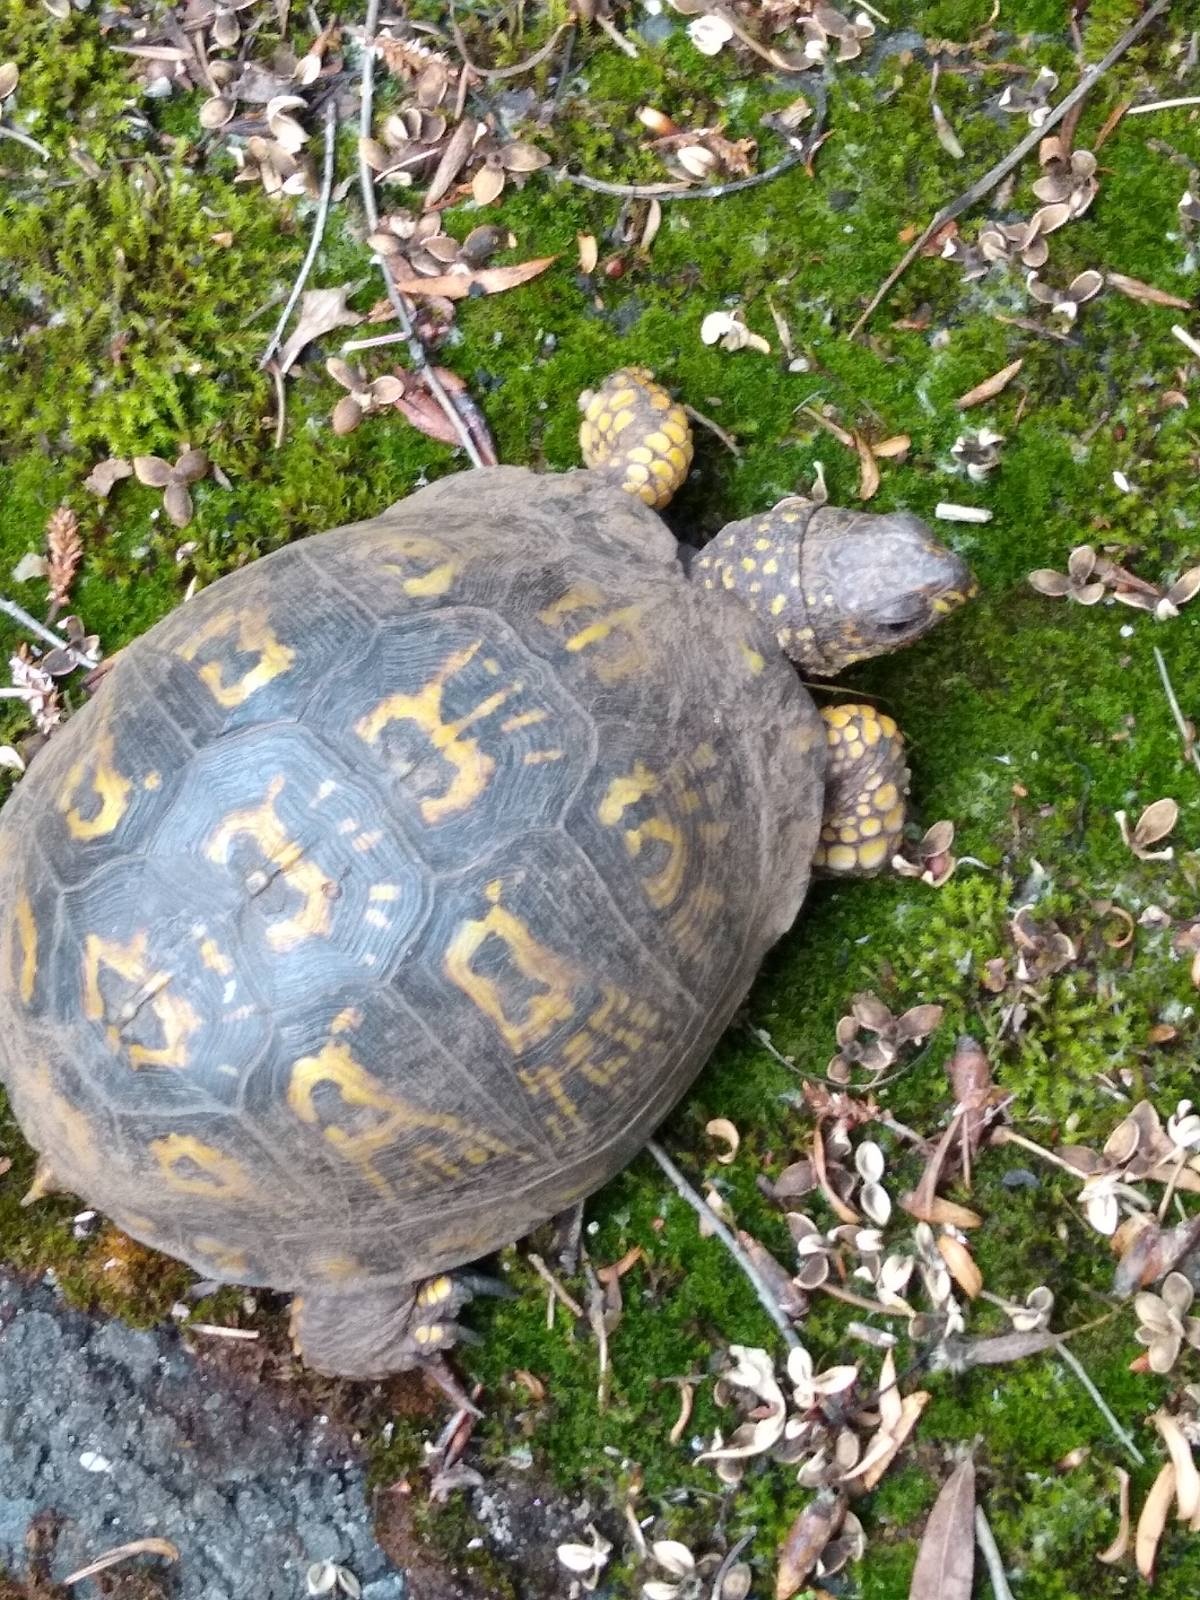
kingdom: Animalia
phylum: Chordata
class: Testudines
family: Emydidae
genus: Terrapene
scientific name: Terrapene carolina
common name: Common box turtle
